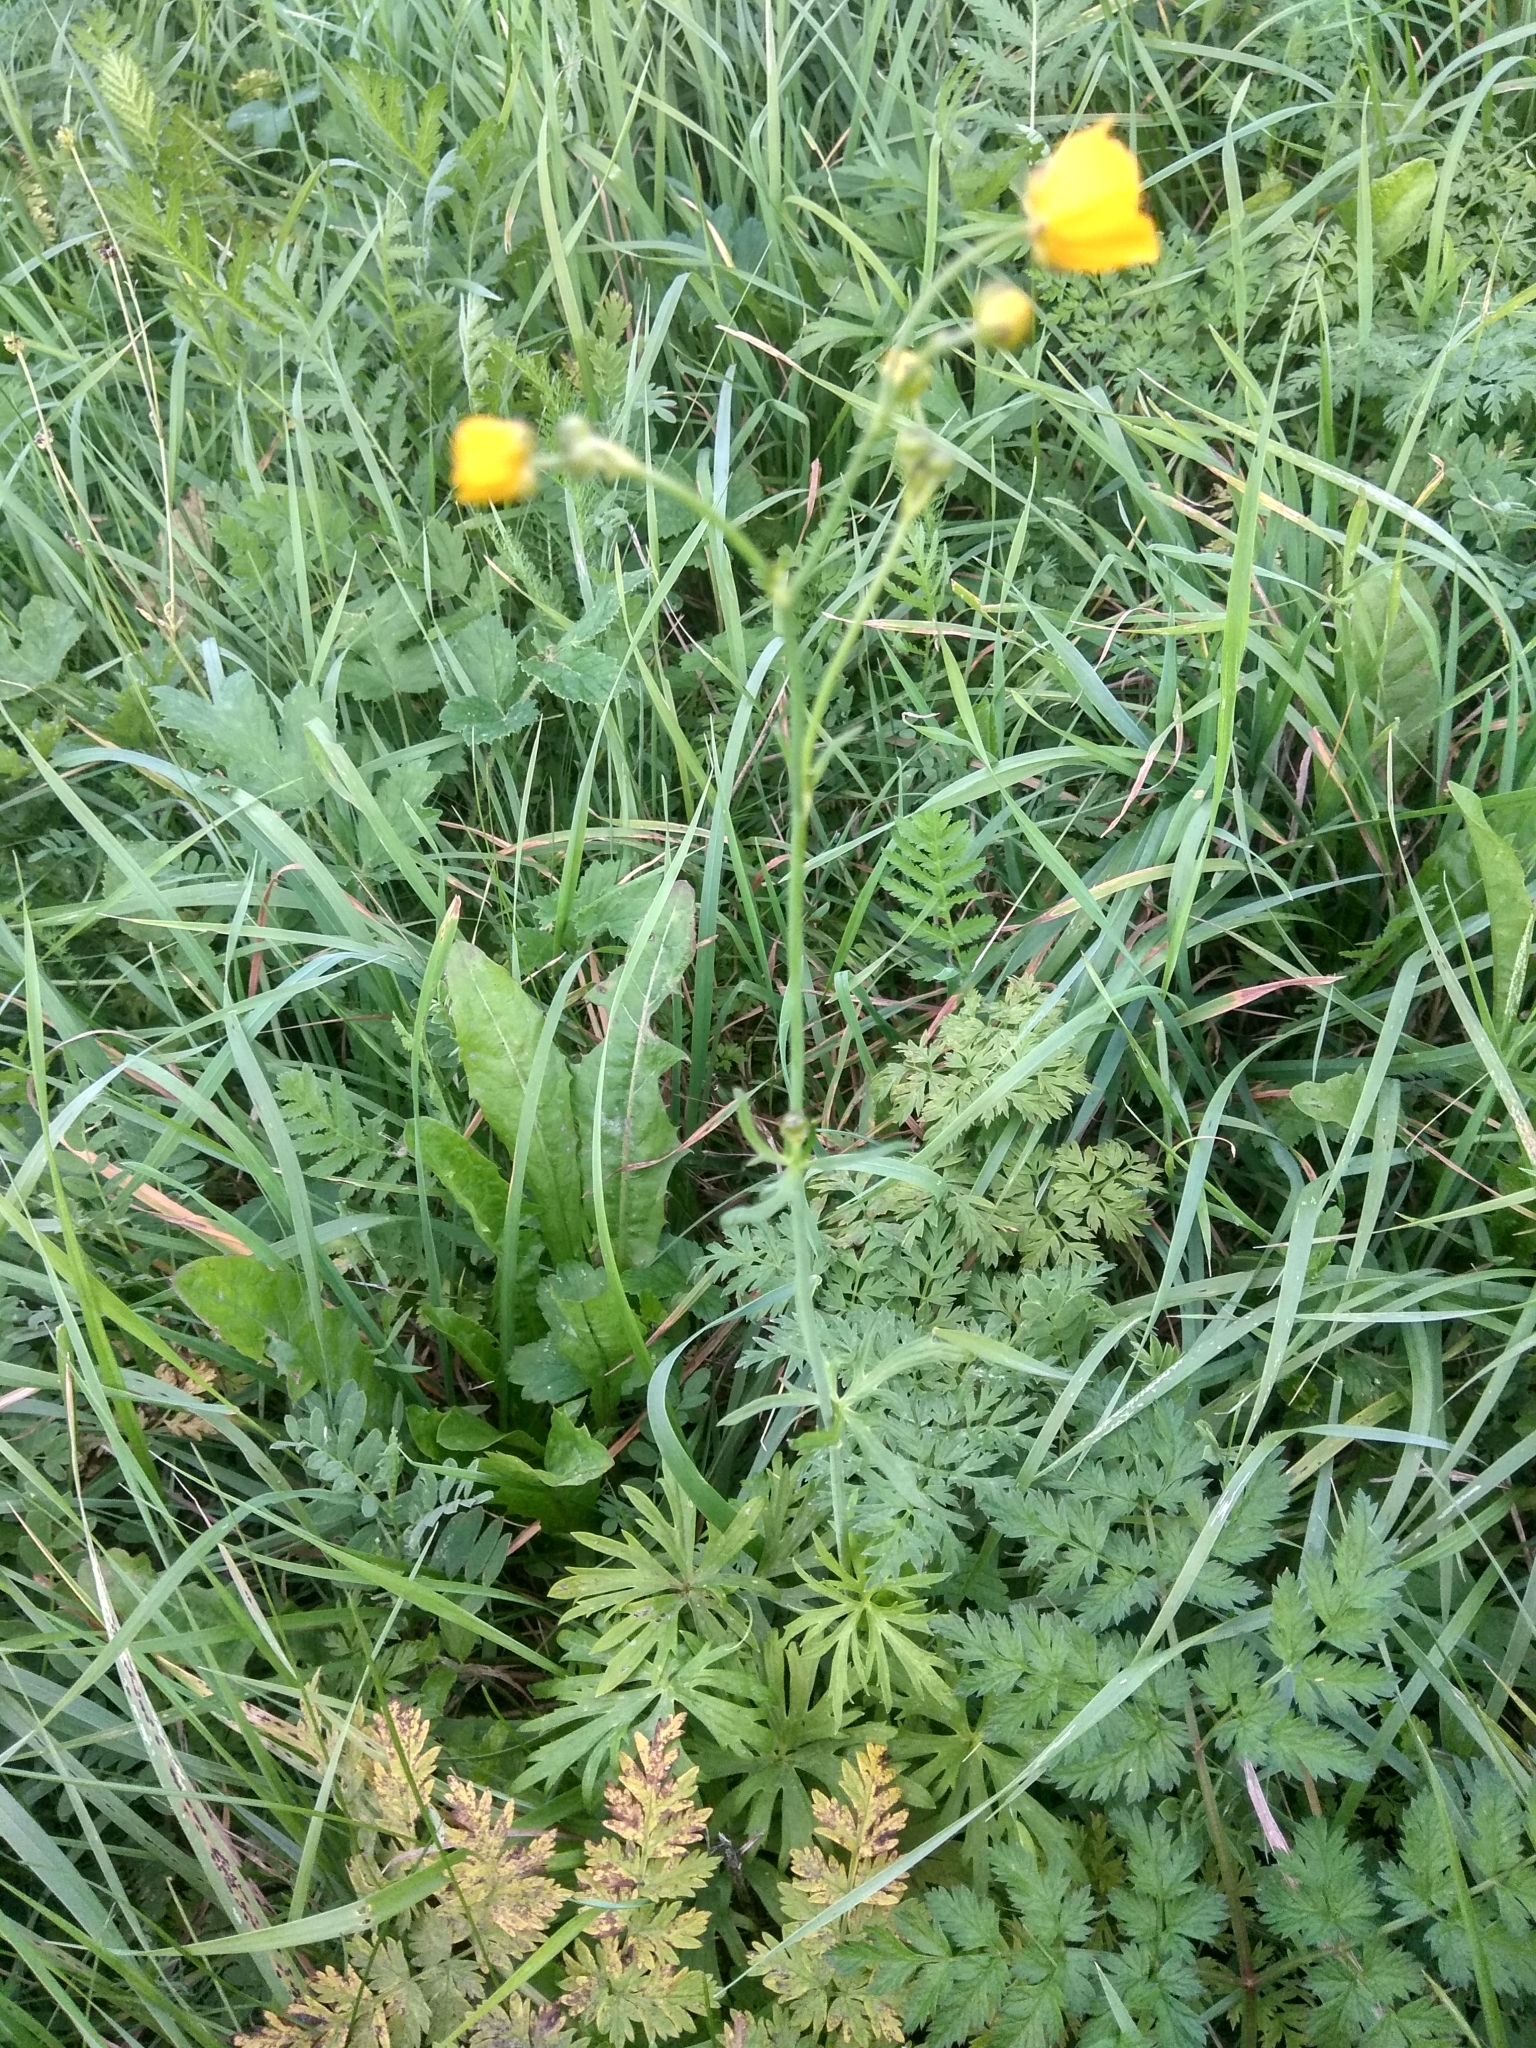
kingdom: Plantae
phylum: Tracheophyta
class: Magnoliopsida
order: Ranunculales
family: Ranunculaceae
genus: Ranunculus
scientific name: Ranunculus acris
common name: Meadow buttercup
